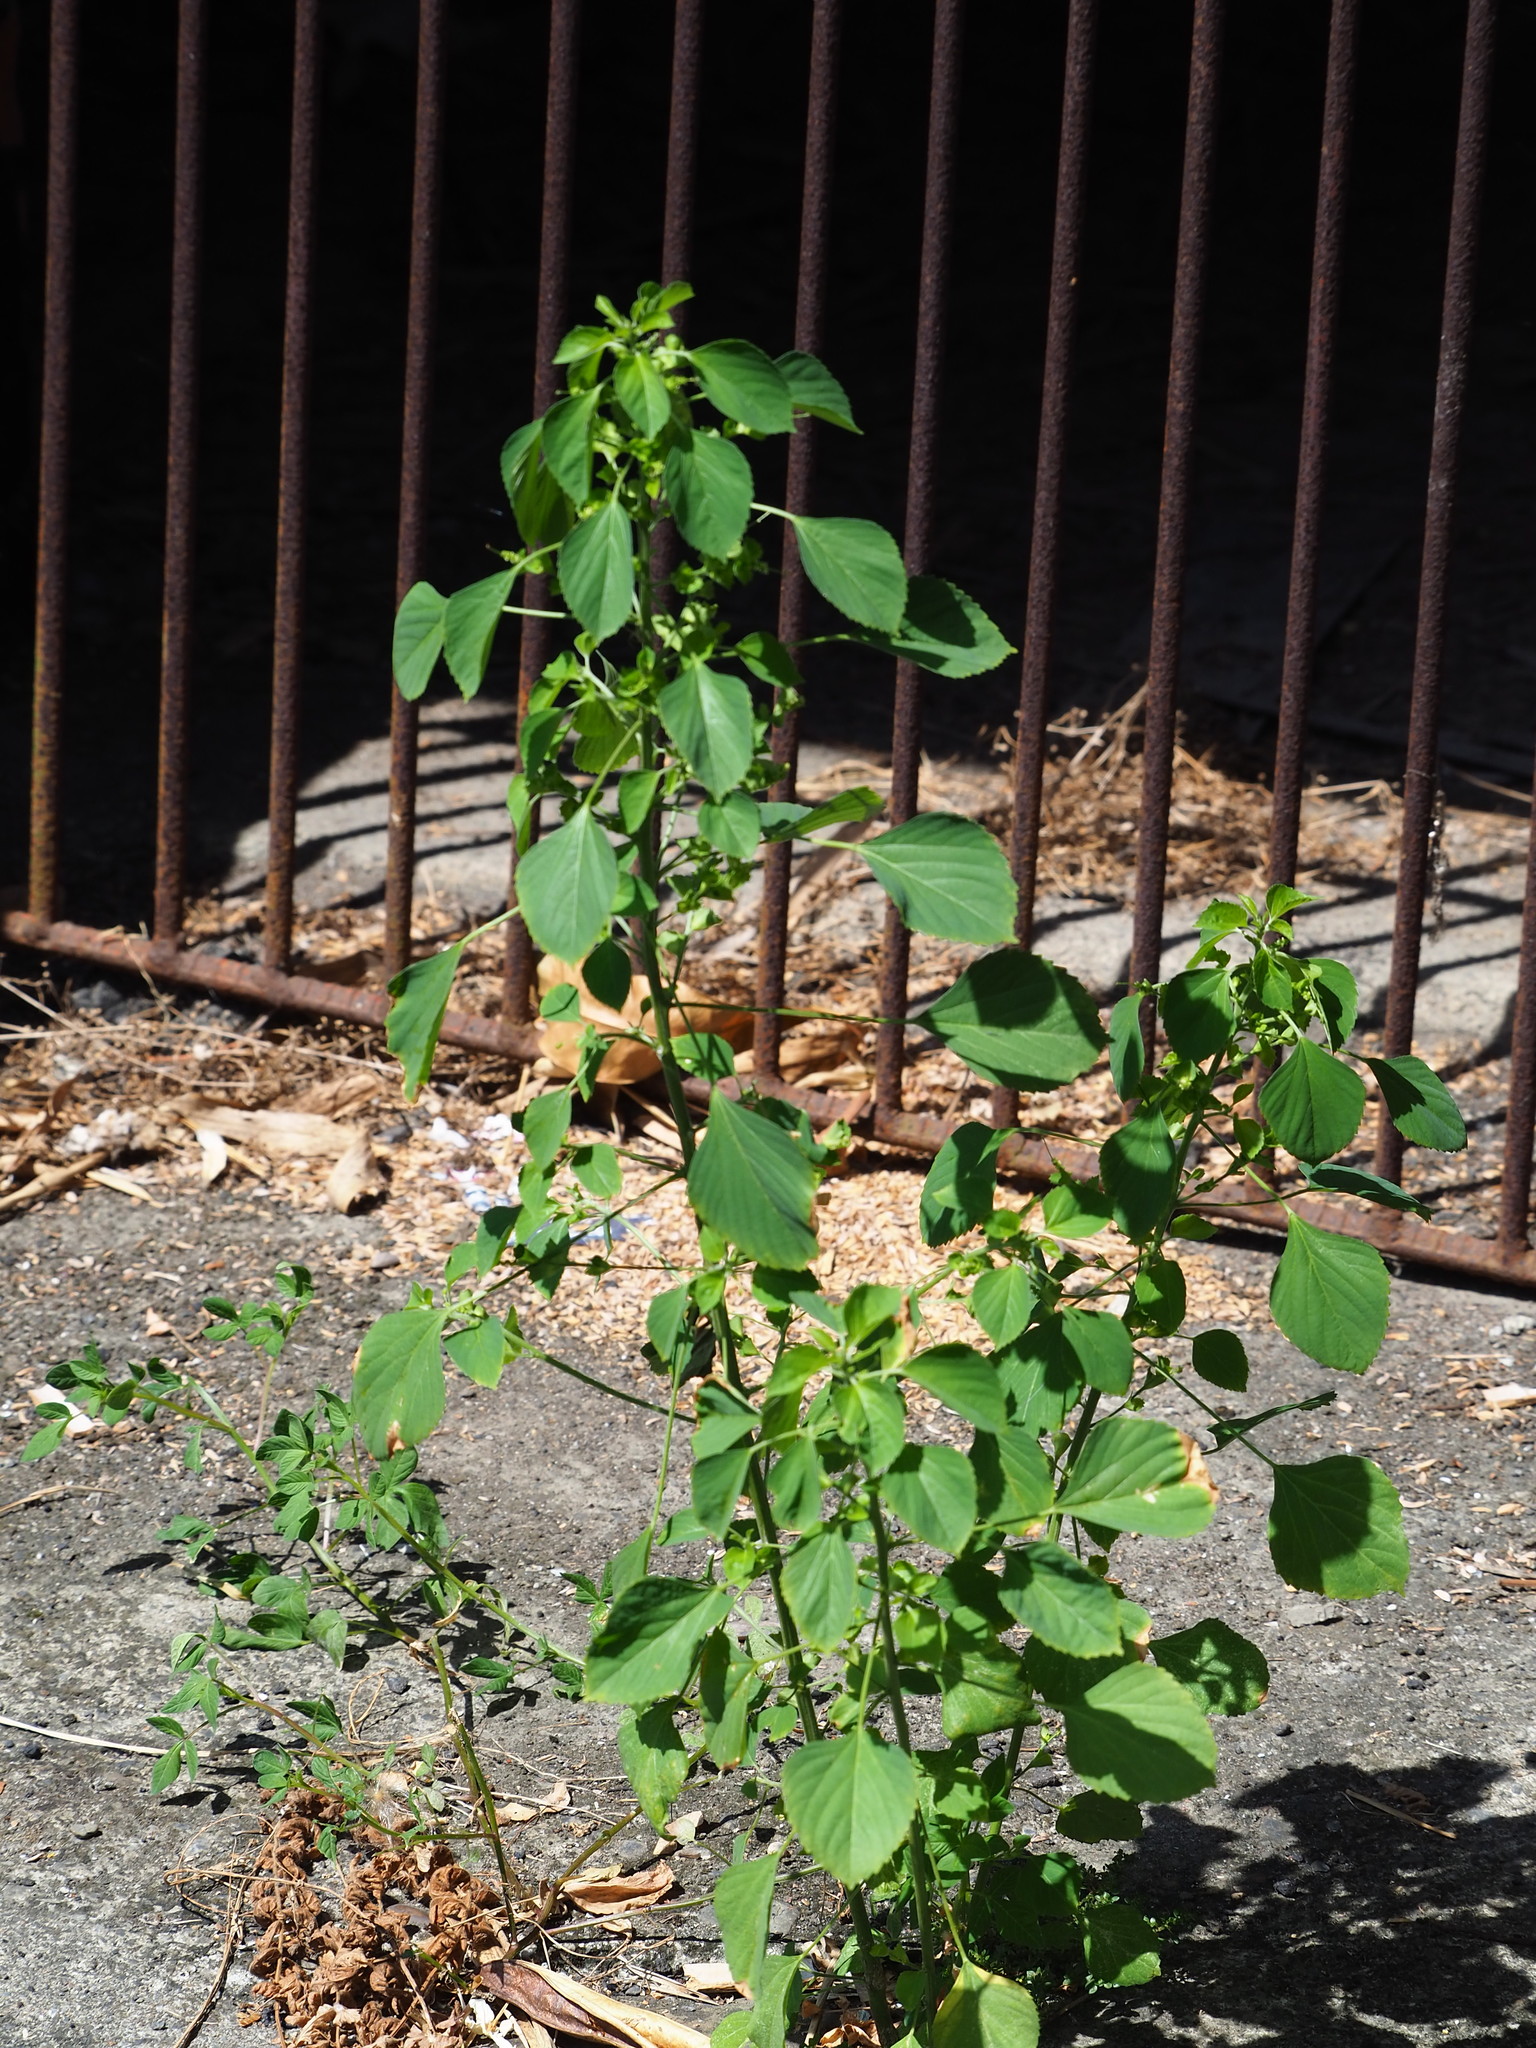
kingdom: Plantae
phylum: Tracheophyta
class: Magnoliopsida
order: Malpighiales
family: Euphorbiaceae
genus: Acalypha
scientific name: Acalypha indica
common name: Indian acalypha
